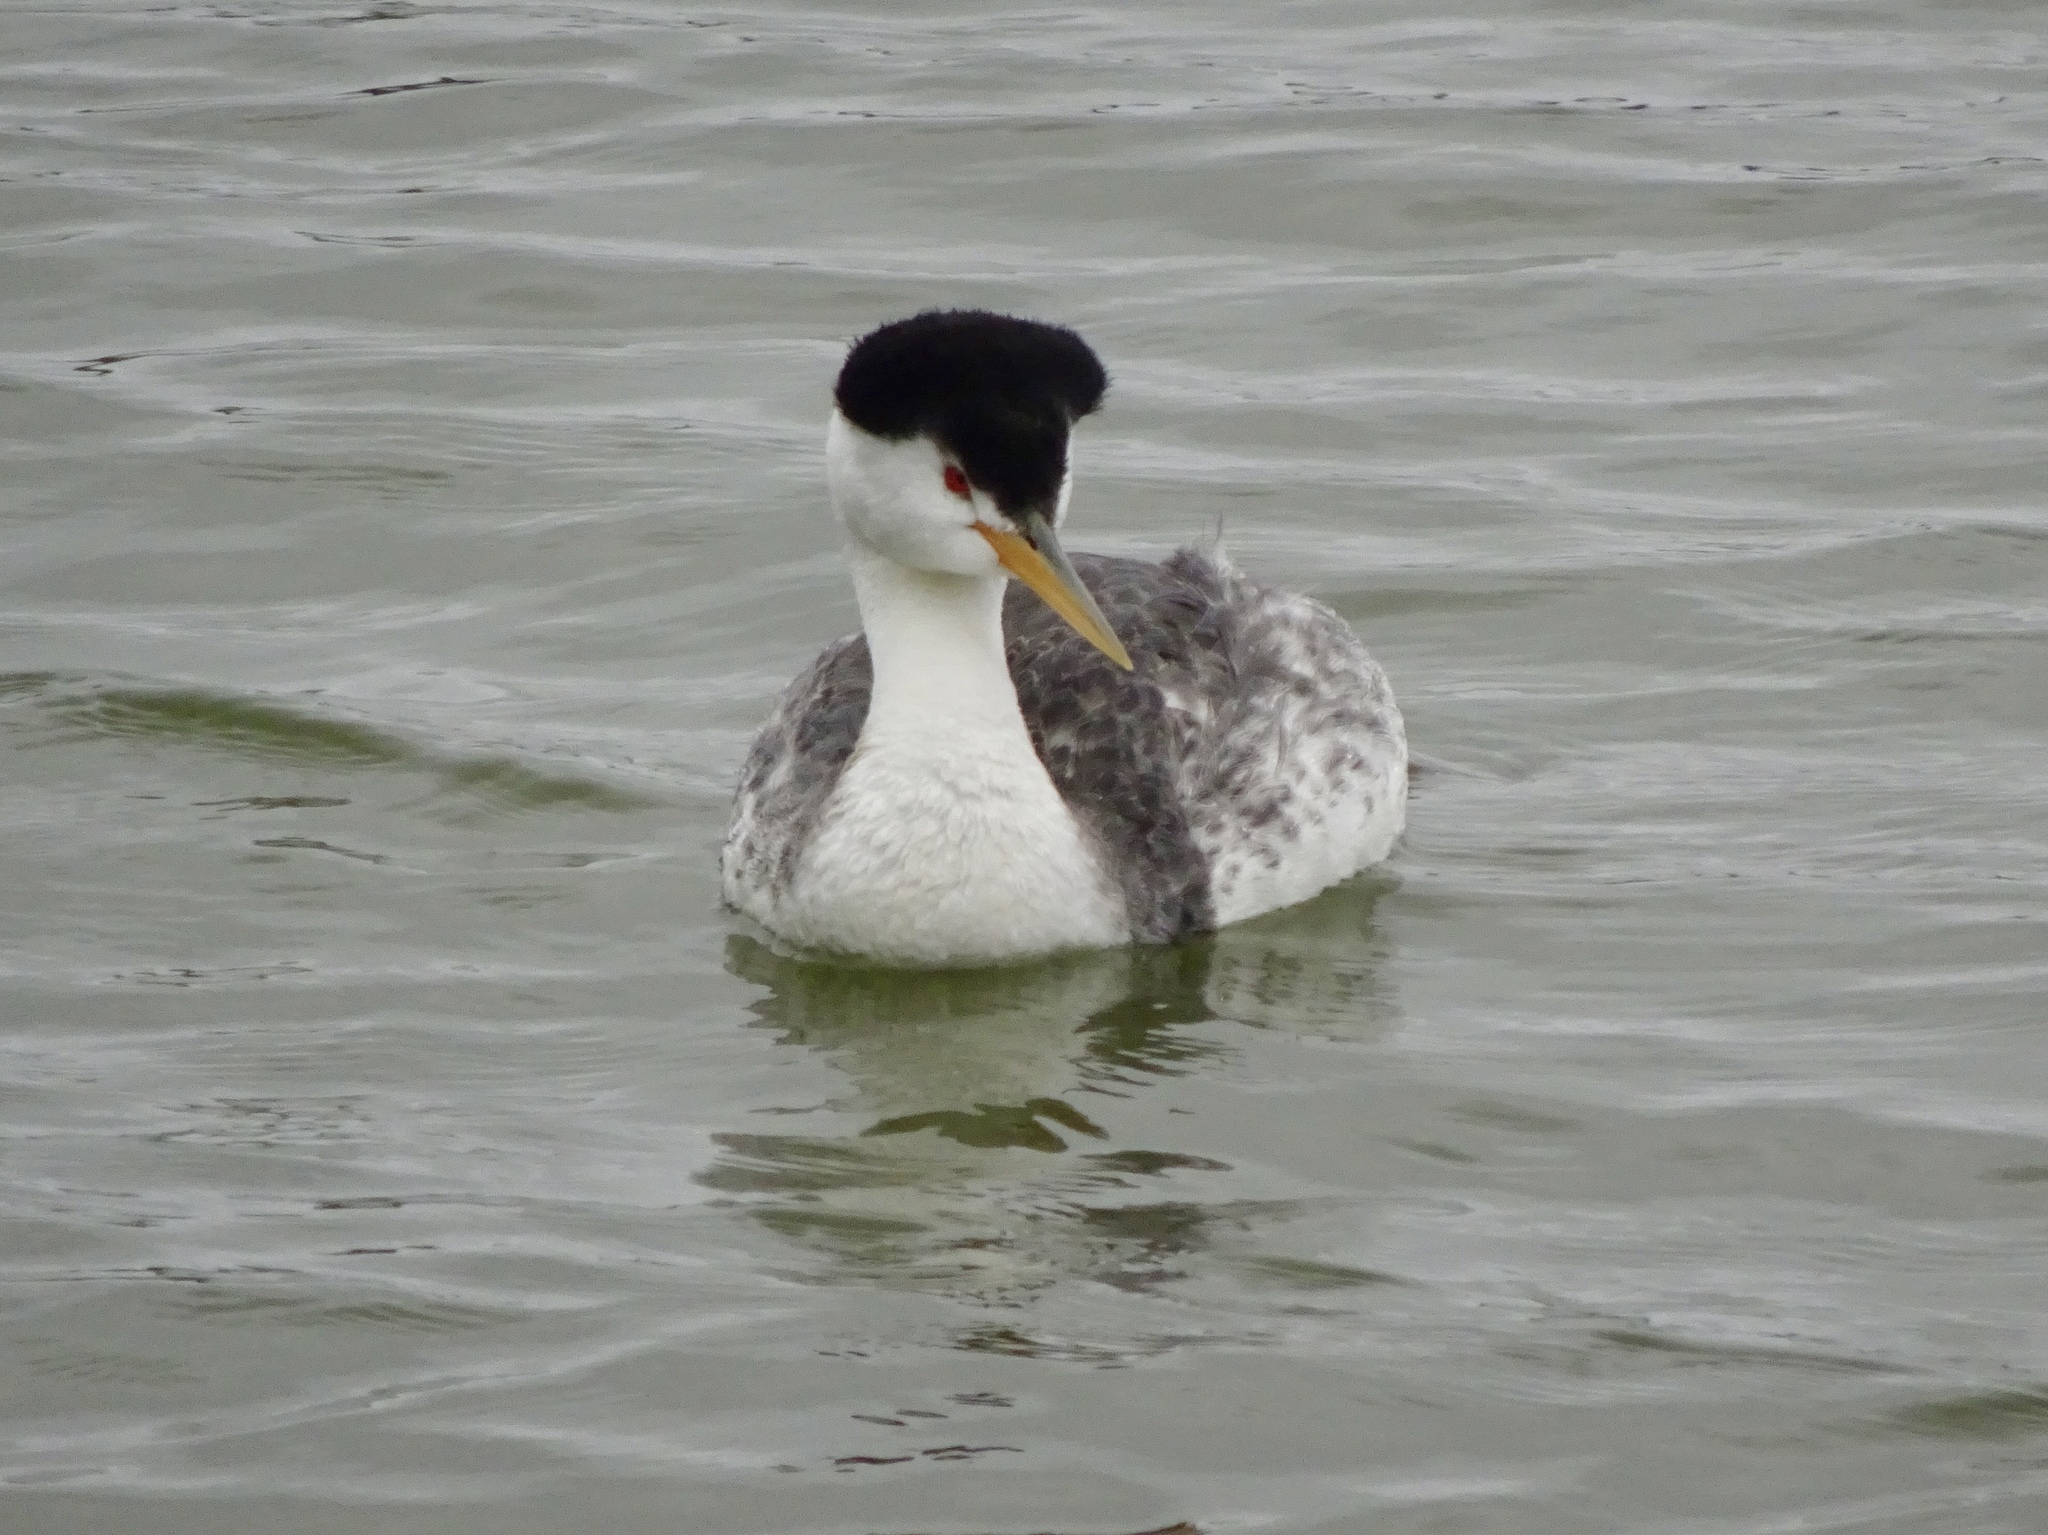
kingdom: Animalia
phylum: Chordata
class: Aves
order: Podicipediformes
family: Podicipedidae
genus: Aechmophorus
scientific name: Aechmophorus clarkii
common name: Clark's grebe
